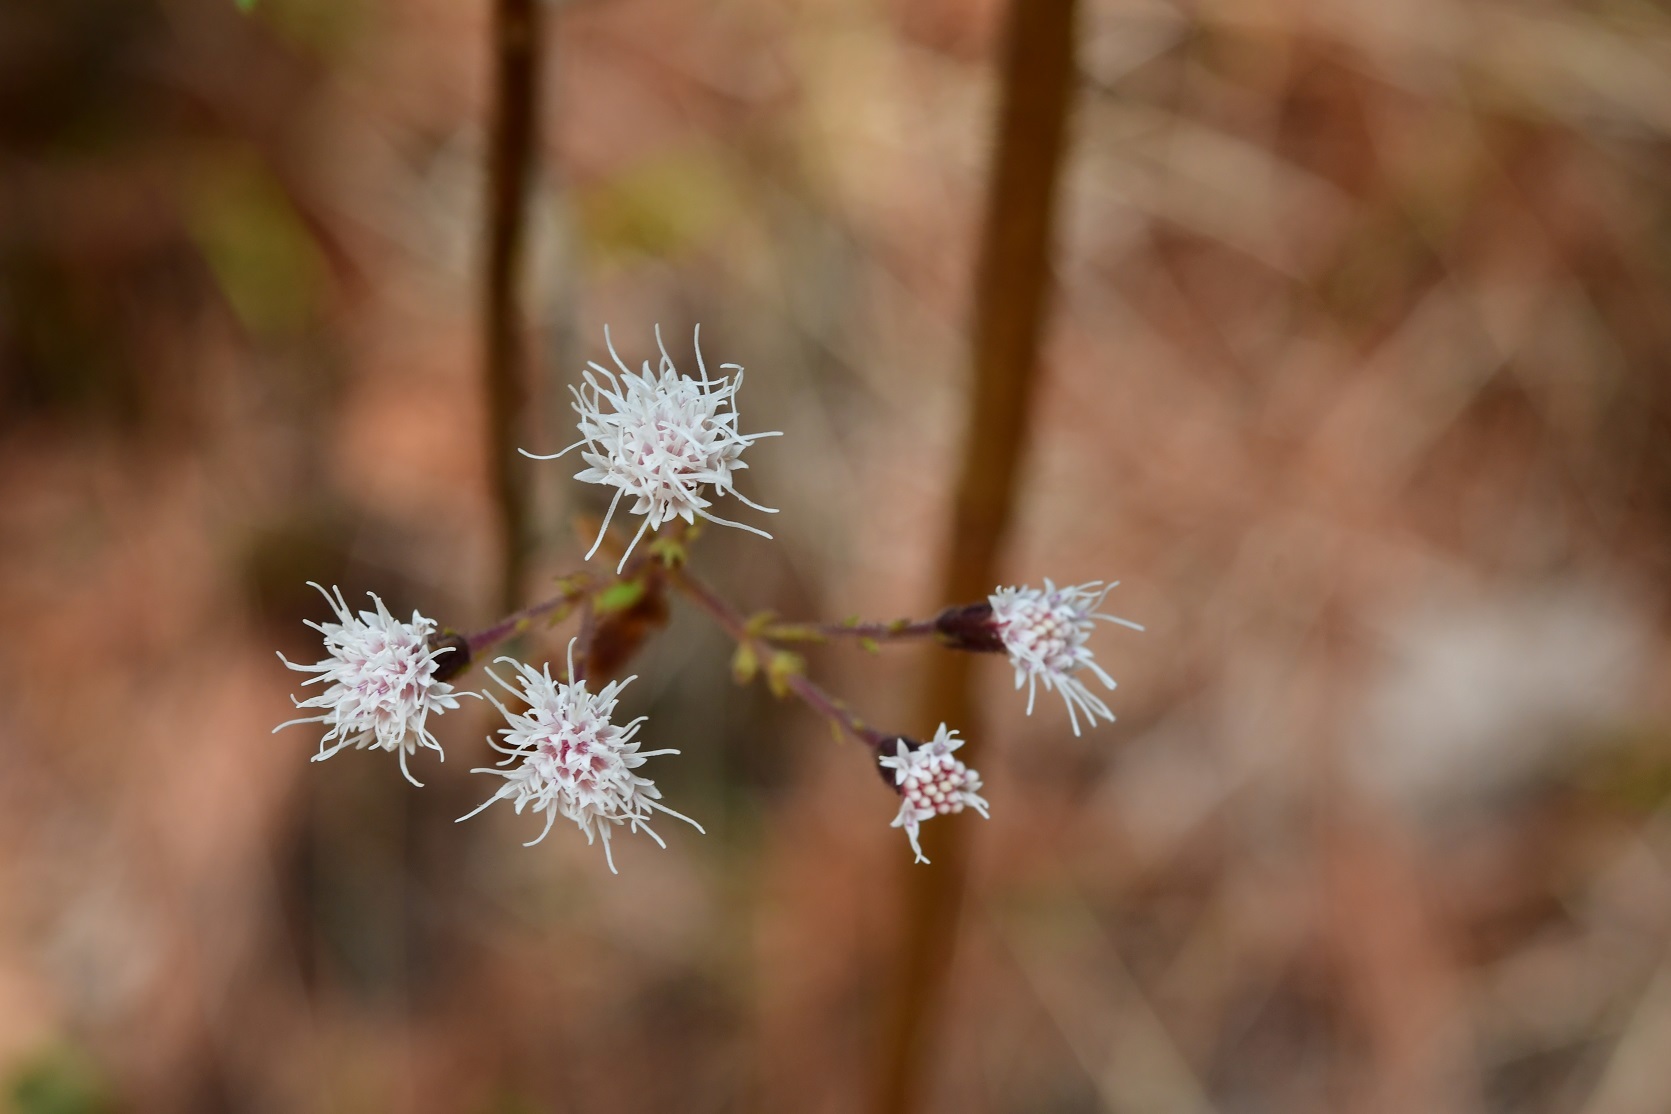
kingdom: Plantae
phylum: Tracheophyta
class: Magnoliopsida
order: Asterales
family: Asteraceae
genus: Bartlettina
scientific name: Bartlettina sordida
